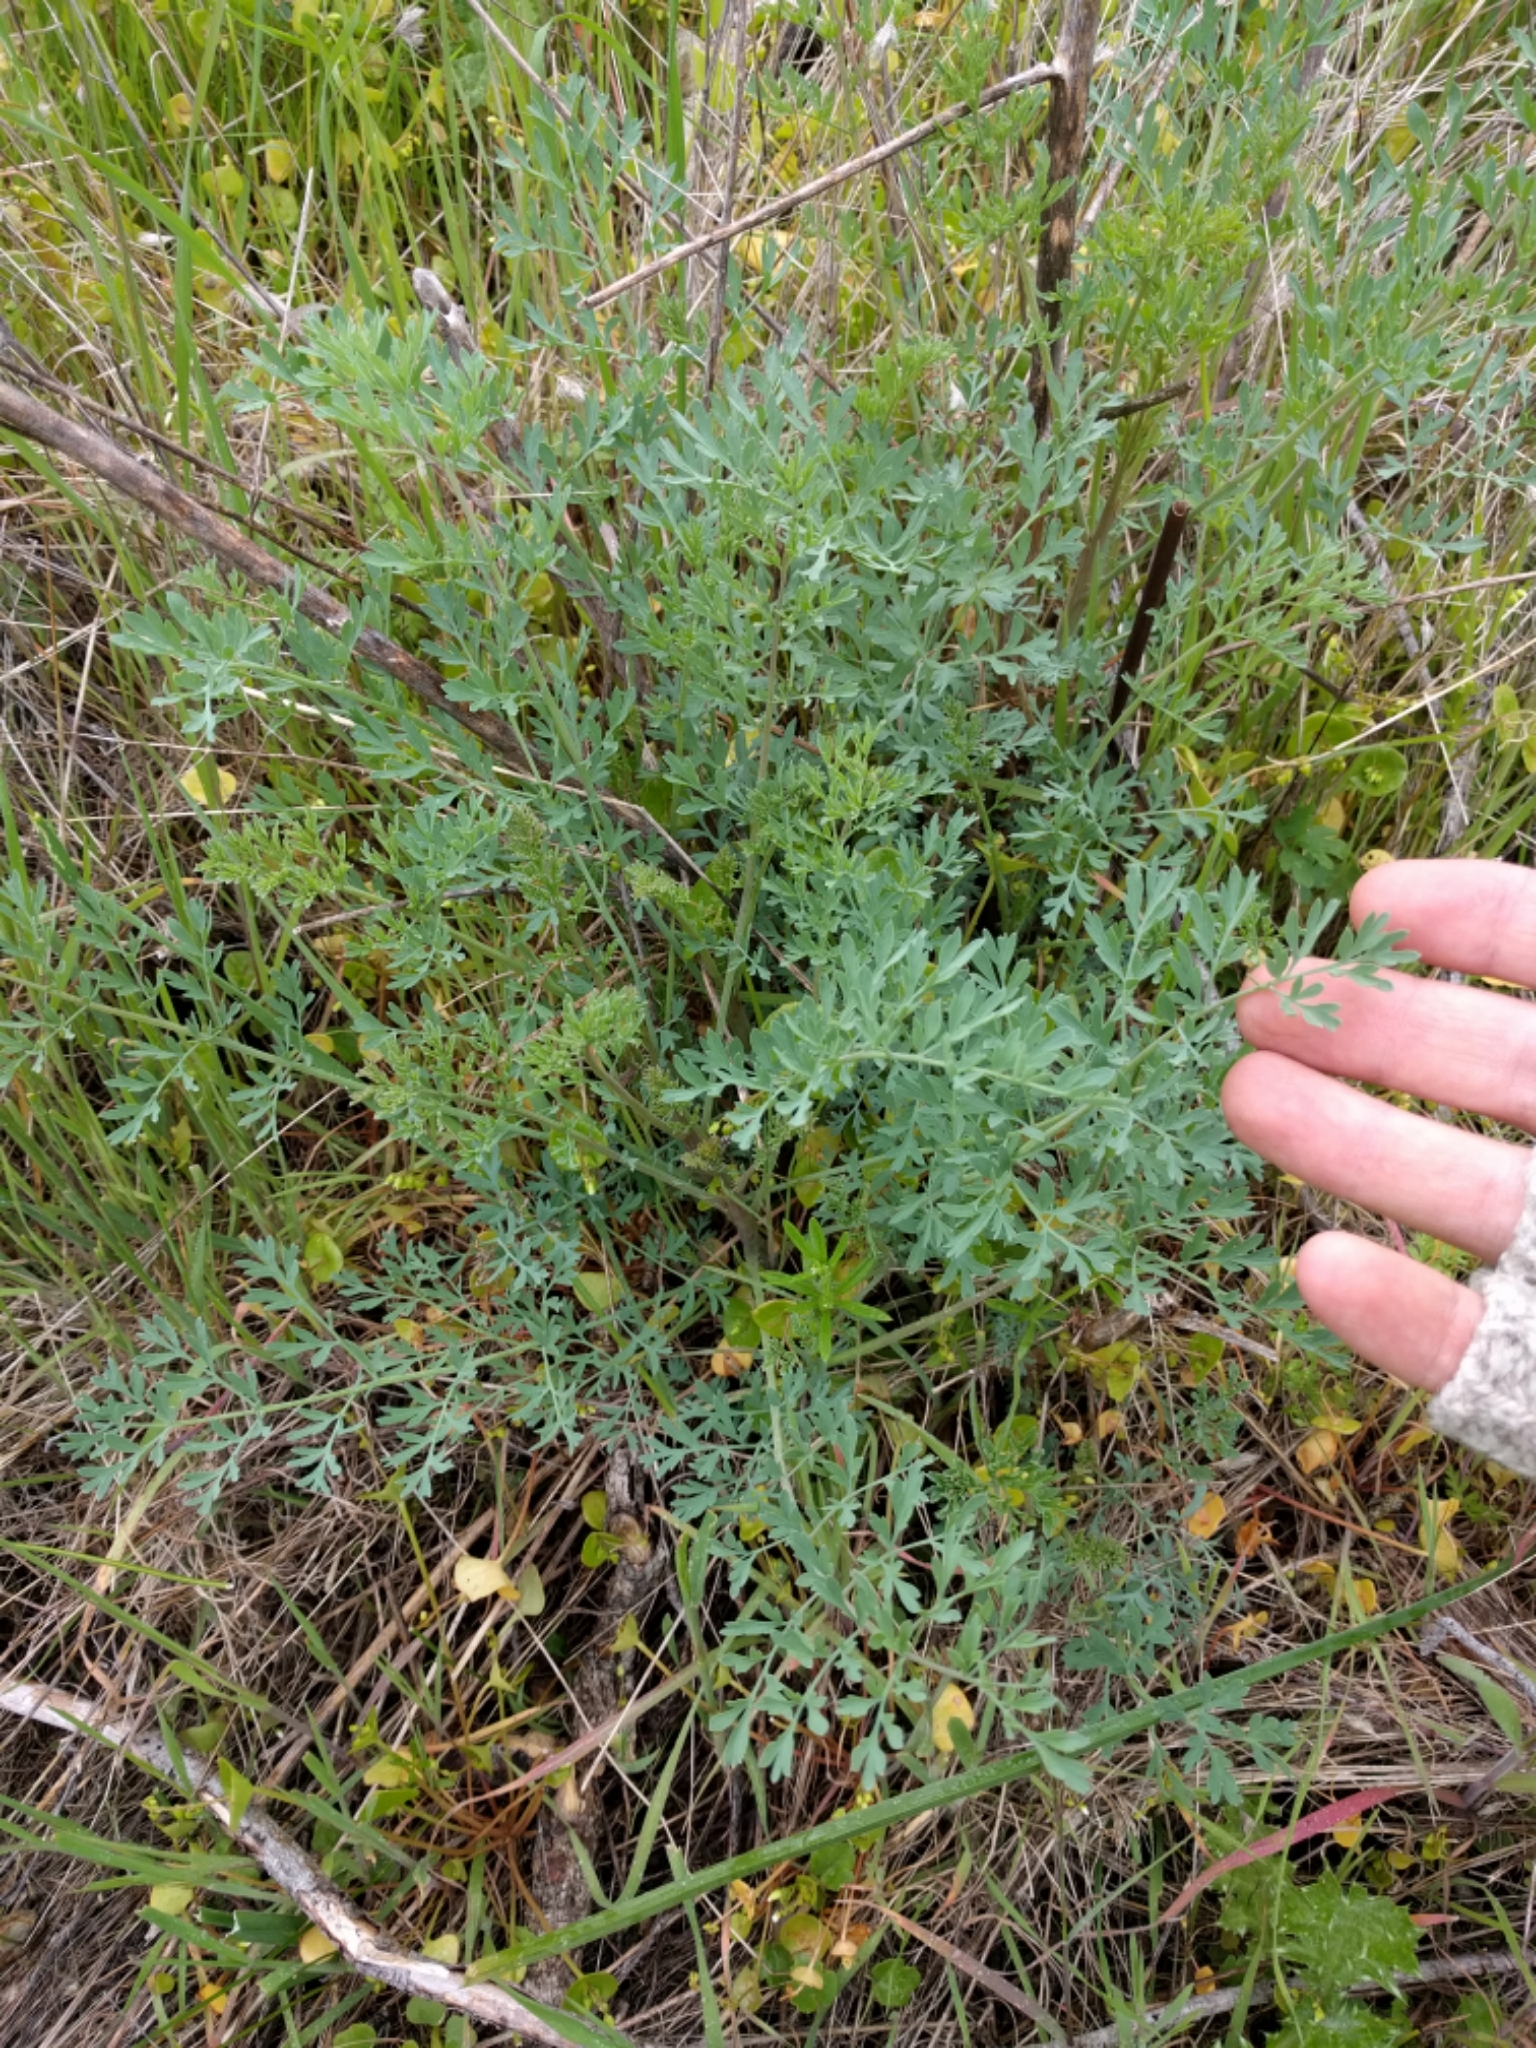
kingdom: Plantae
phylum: Tracheophyta
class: Magnoliopsida
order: Apiales
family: Apiaceae
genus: Lomatium
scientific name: Lomatium californicum
